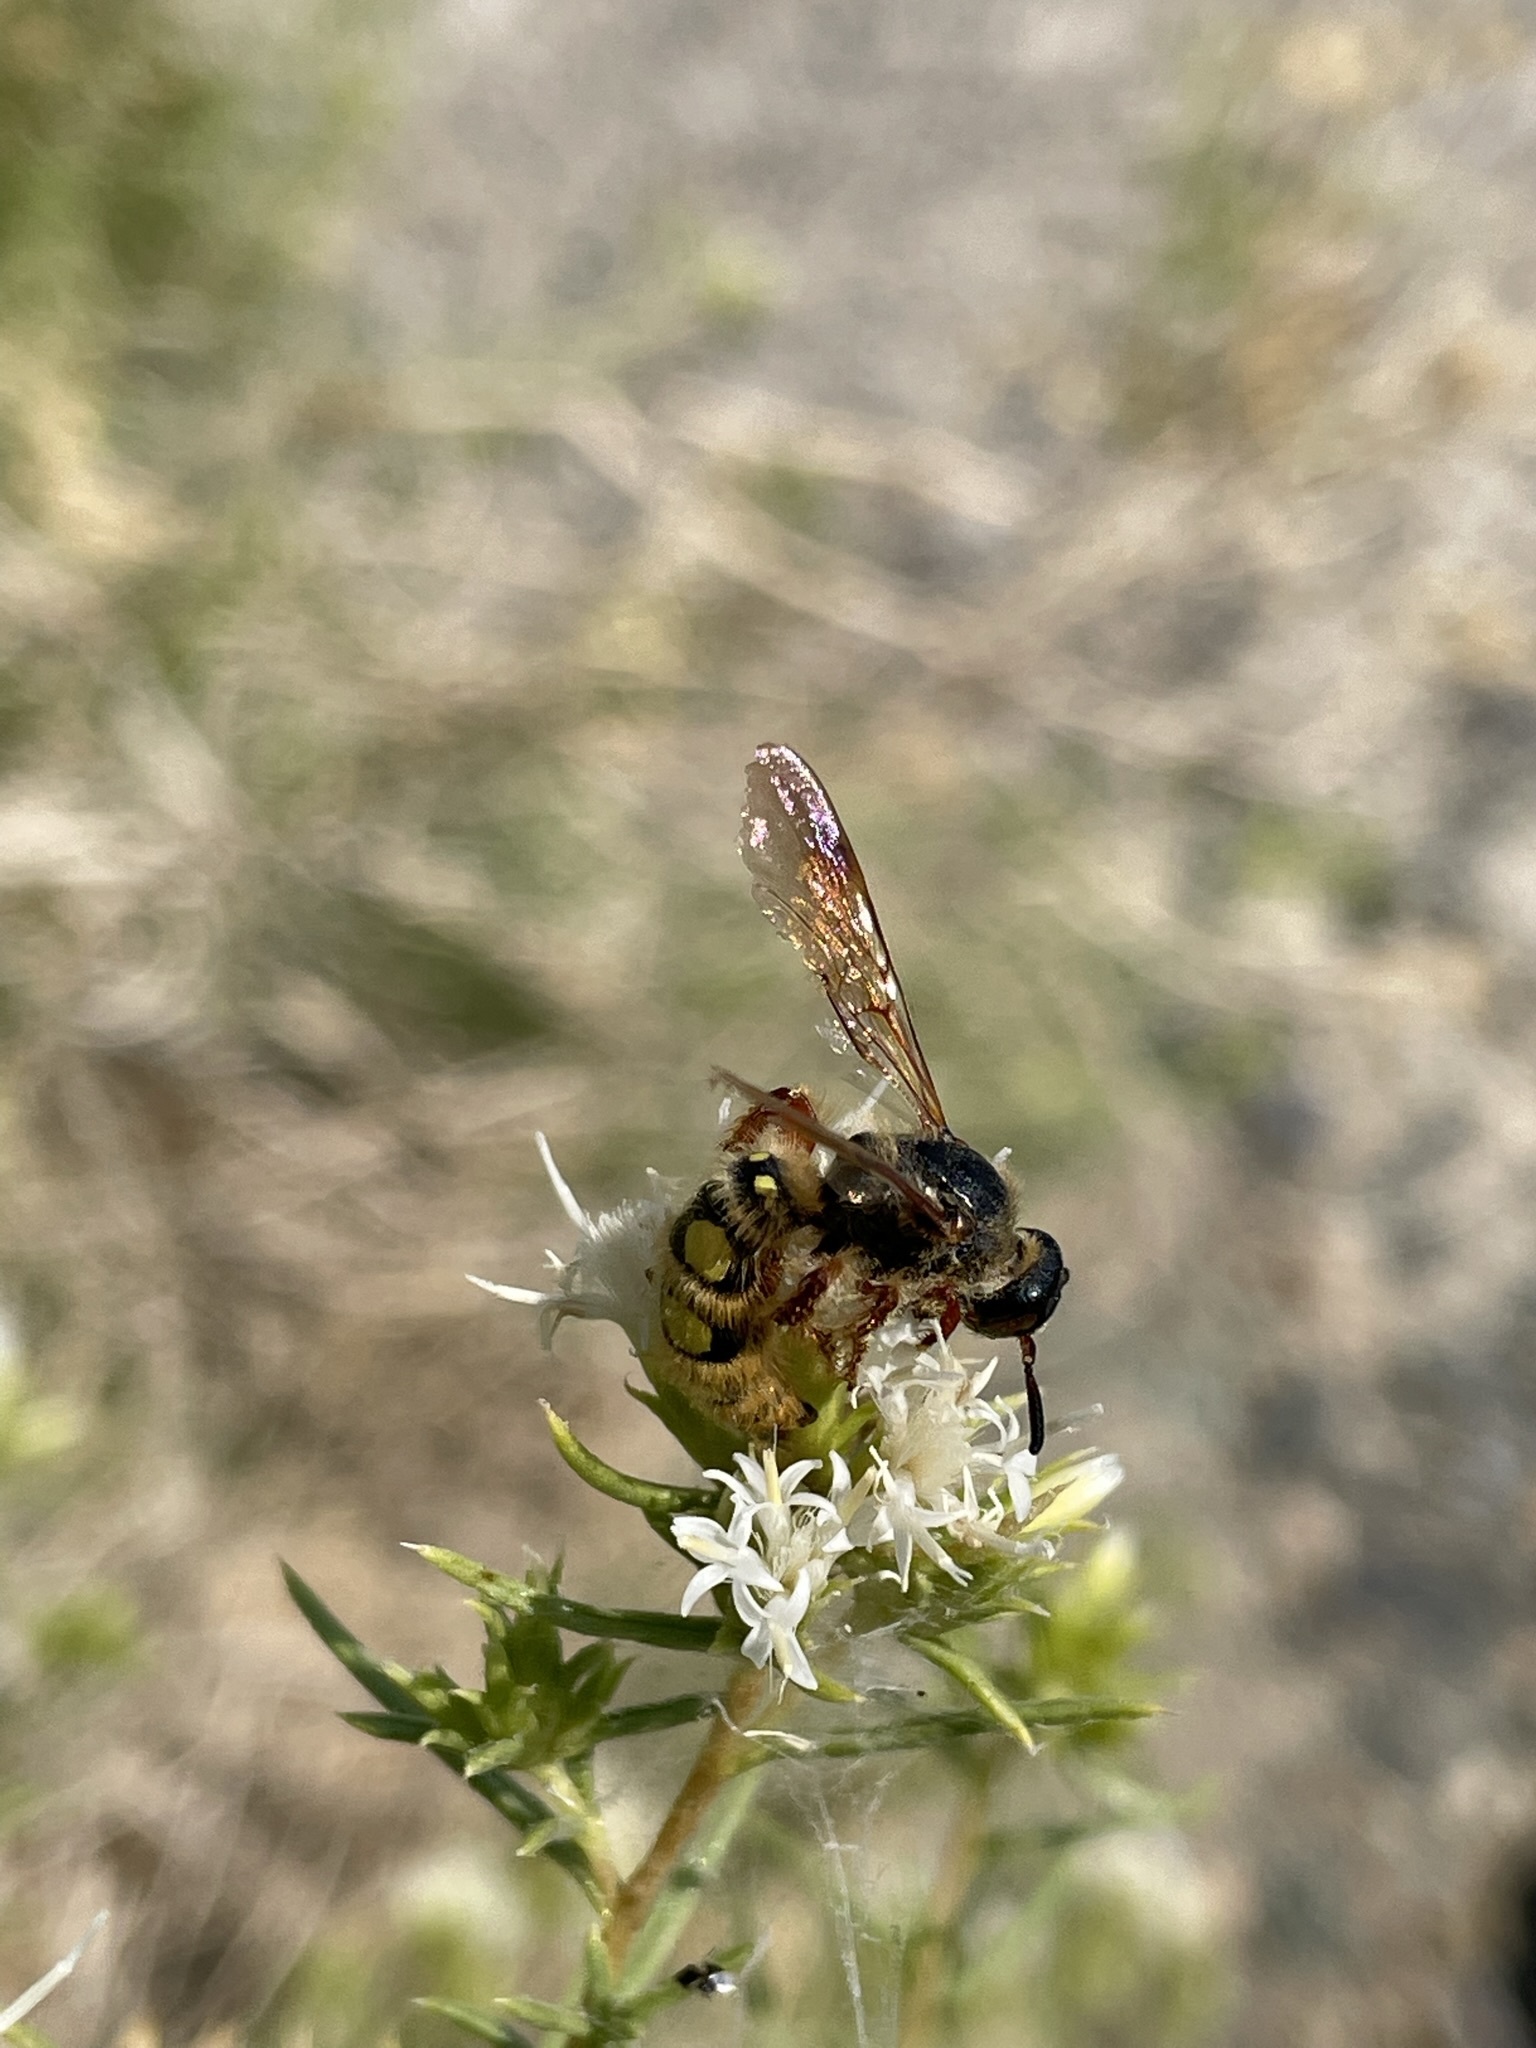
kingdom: Animalia
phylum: Arthropoda
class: Insecta
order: Hymenoptera
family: Sphecidae
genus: Crioscolia
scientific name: Crioscolia
